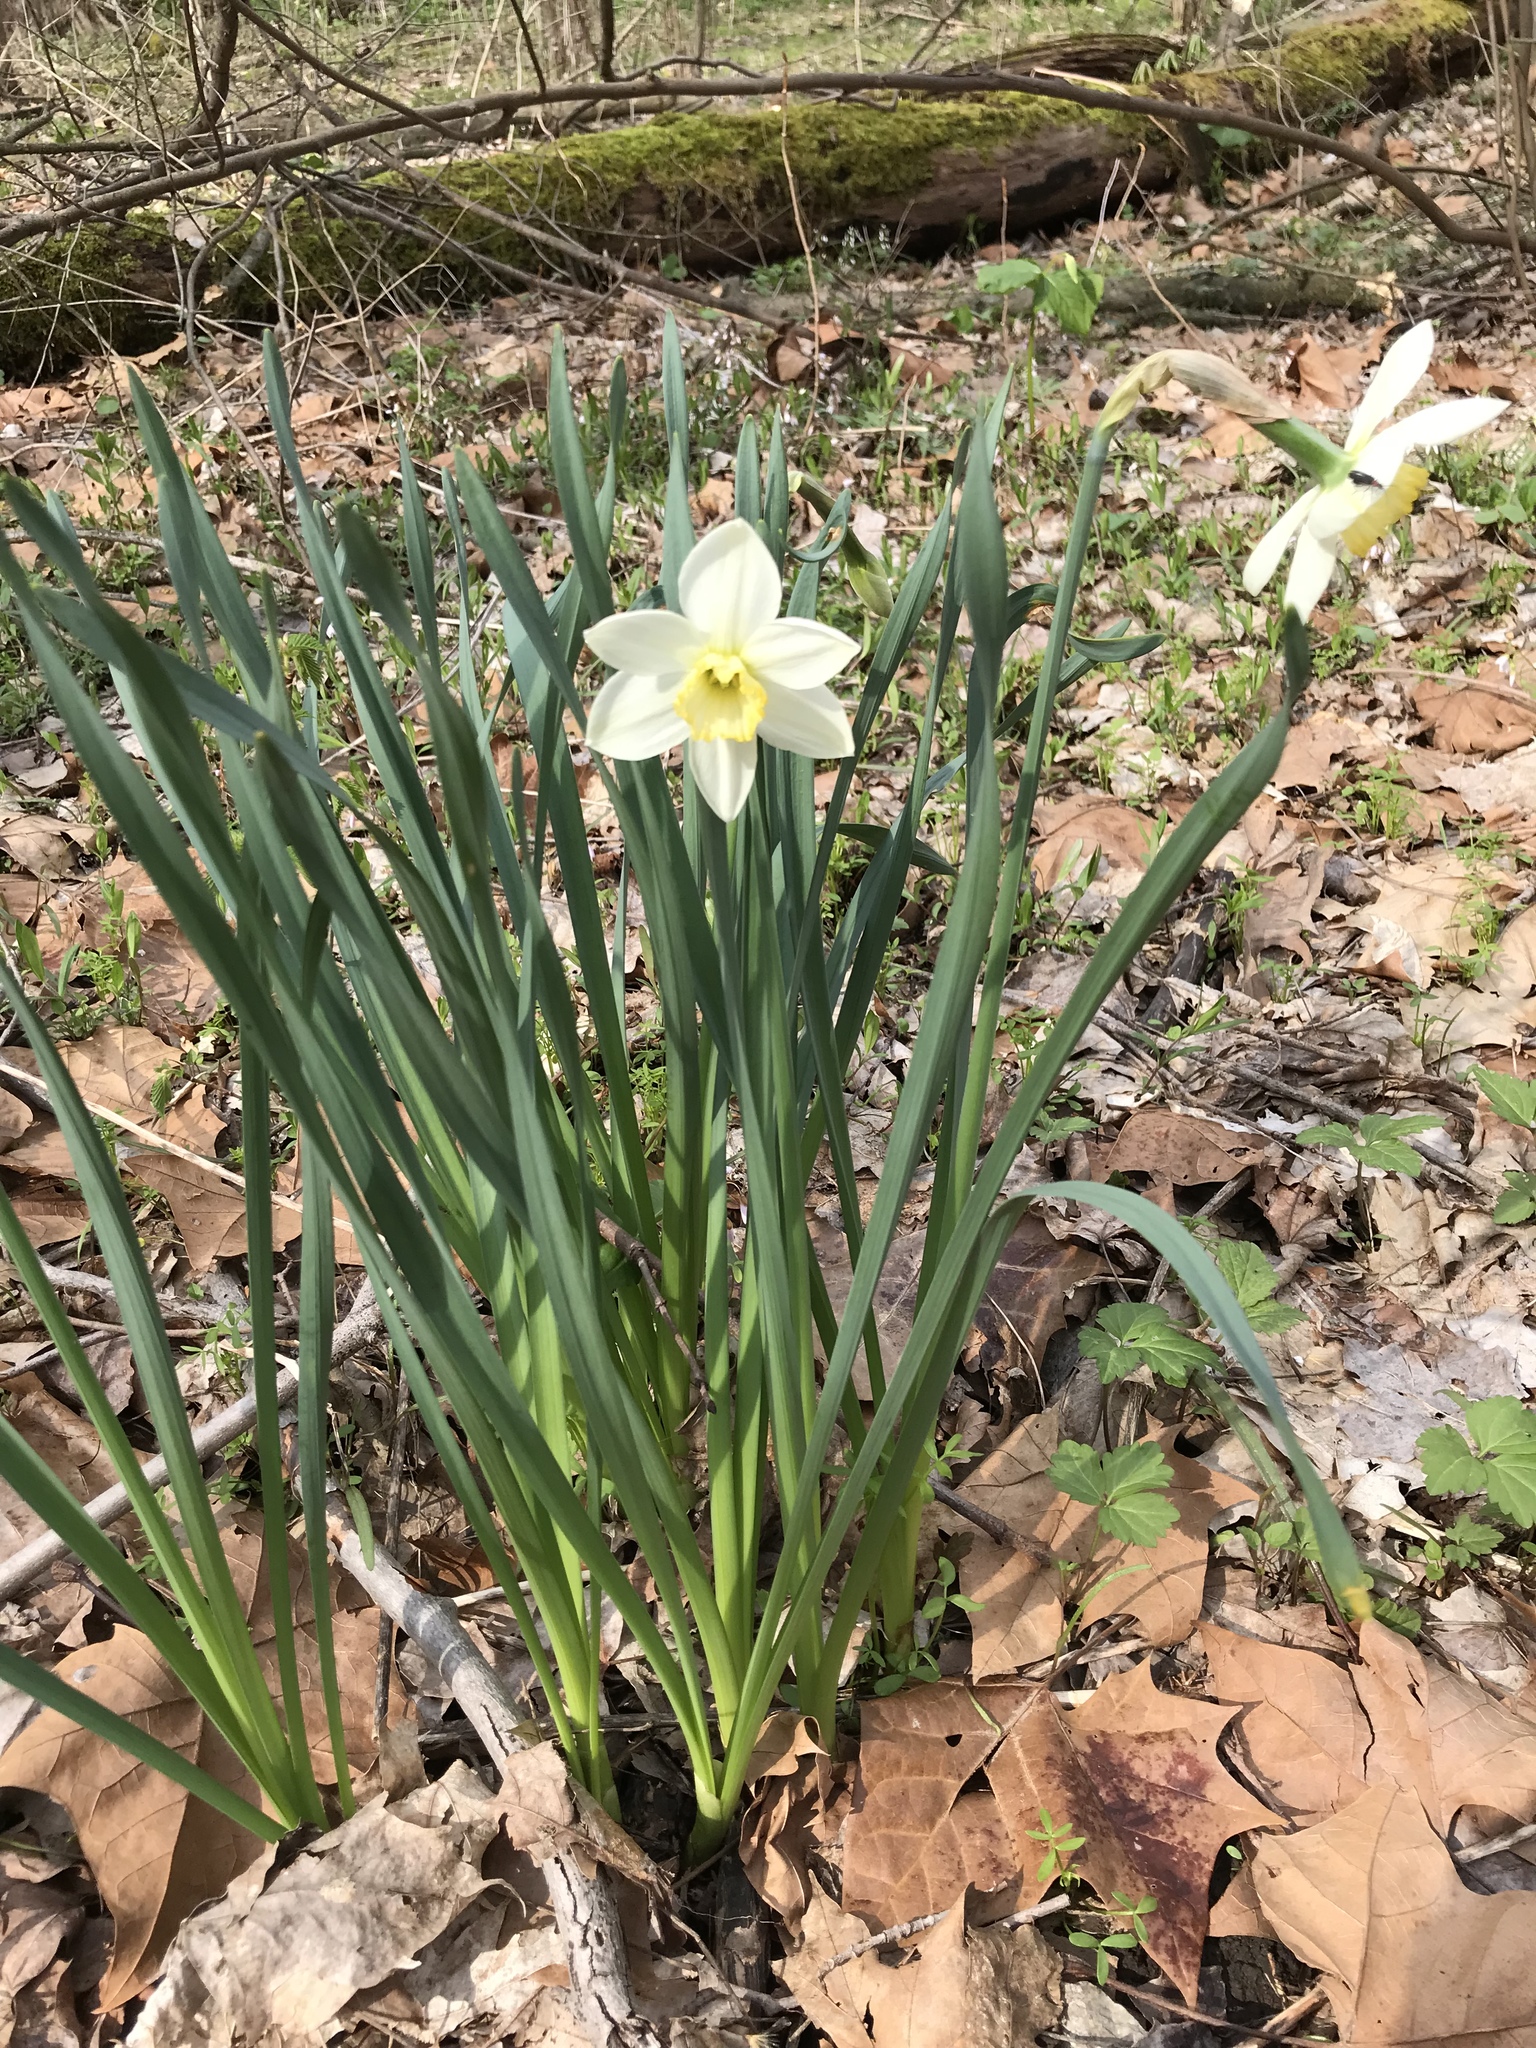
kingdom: Plantae
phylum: Tracheophyta
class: Liliopsida
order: Asparagales
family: Amaryllidaceae
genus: Narcissus
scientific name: Narcissus
